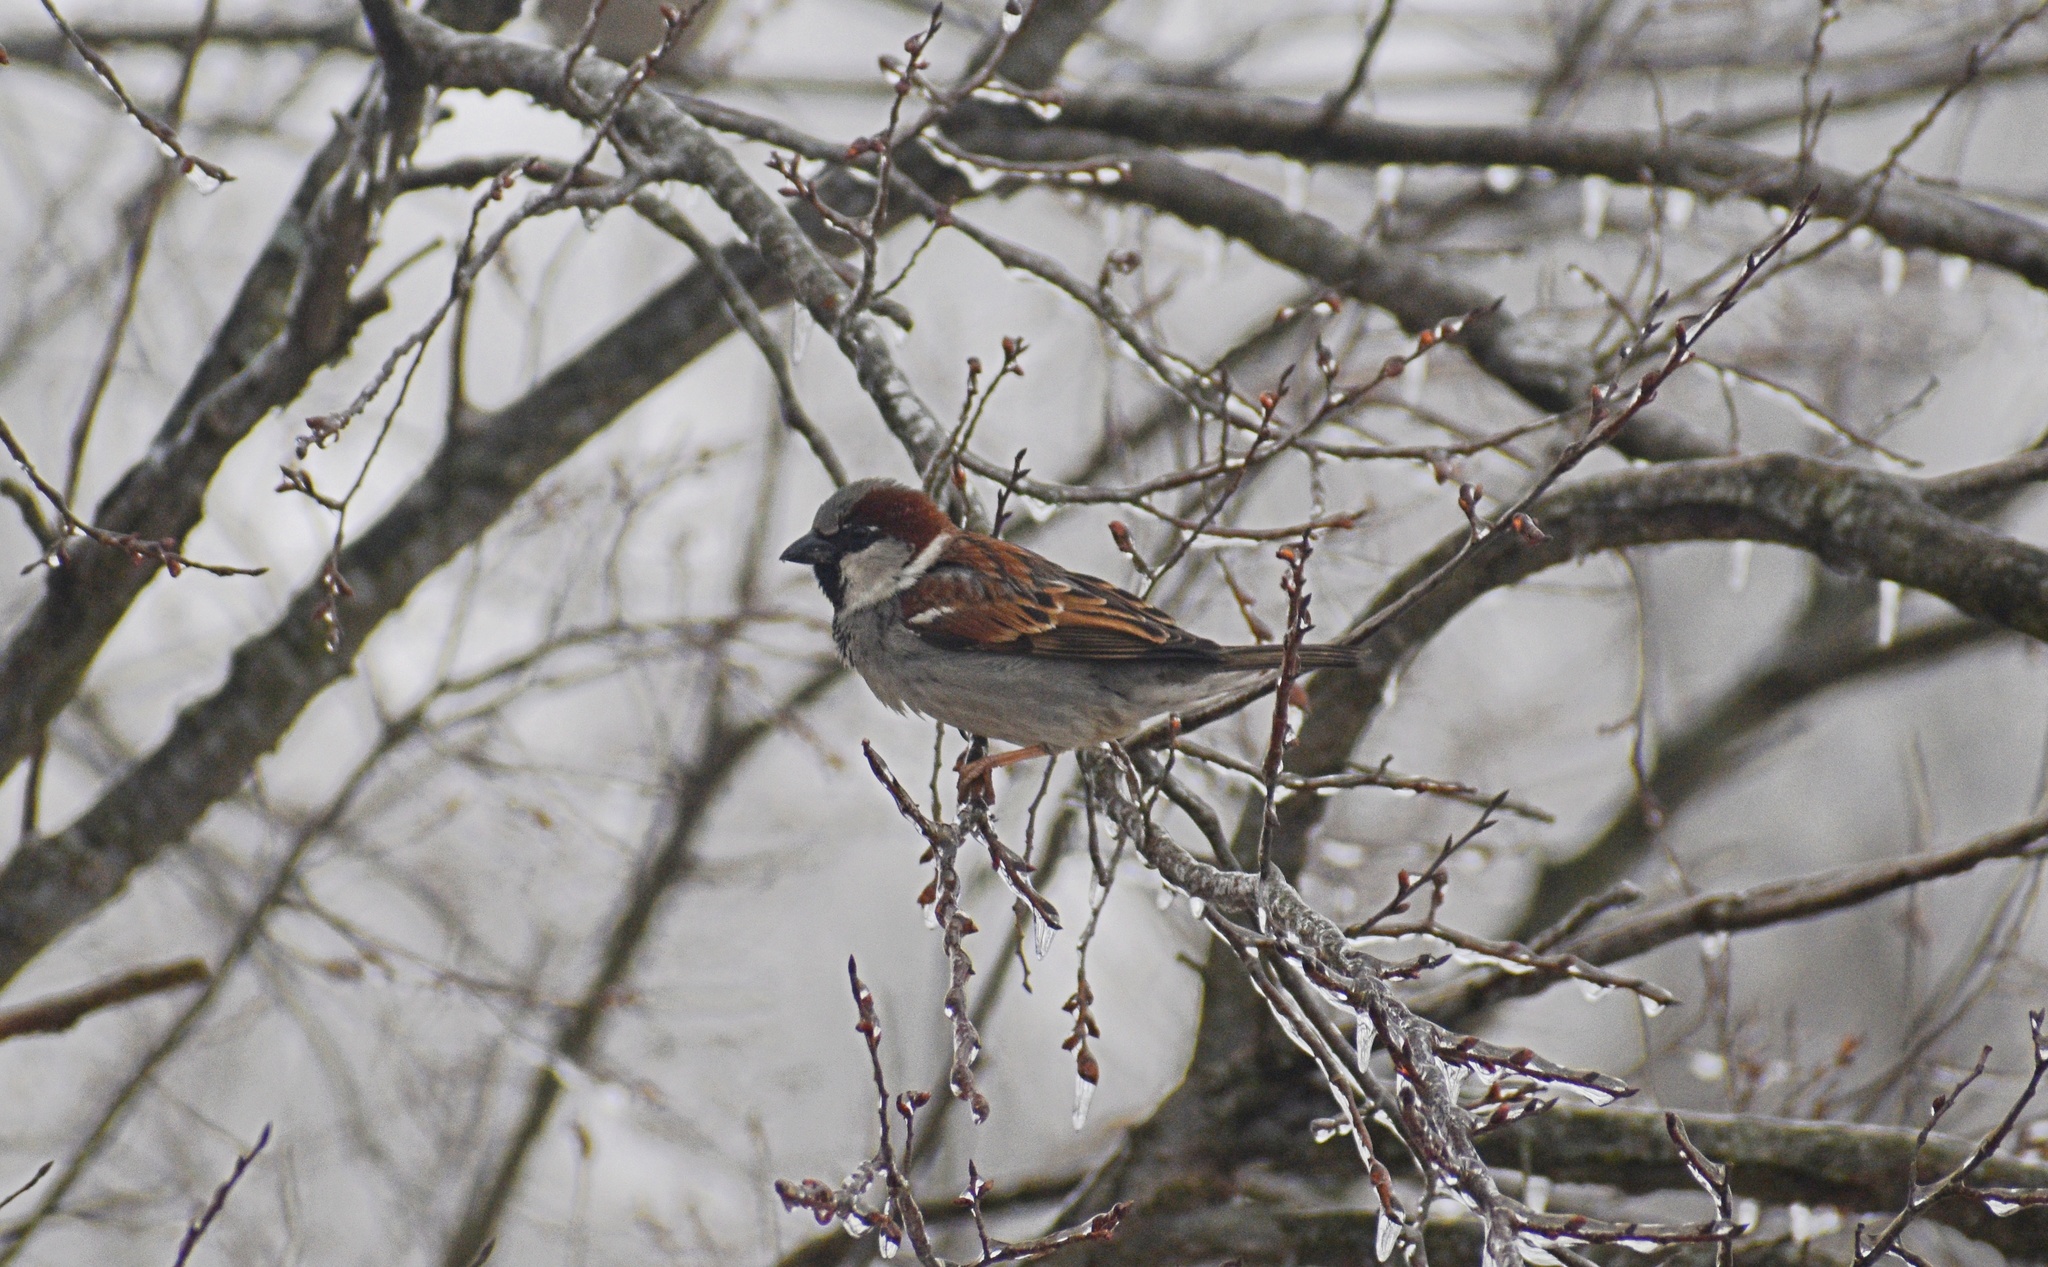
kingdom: Animalia
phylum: Chordata
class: Aves
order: Passeriformes
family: Passeridae
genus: Passer
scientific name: Passer domesticus
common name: House sparrow
